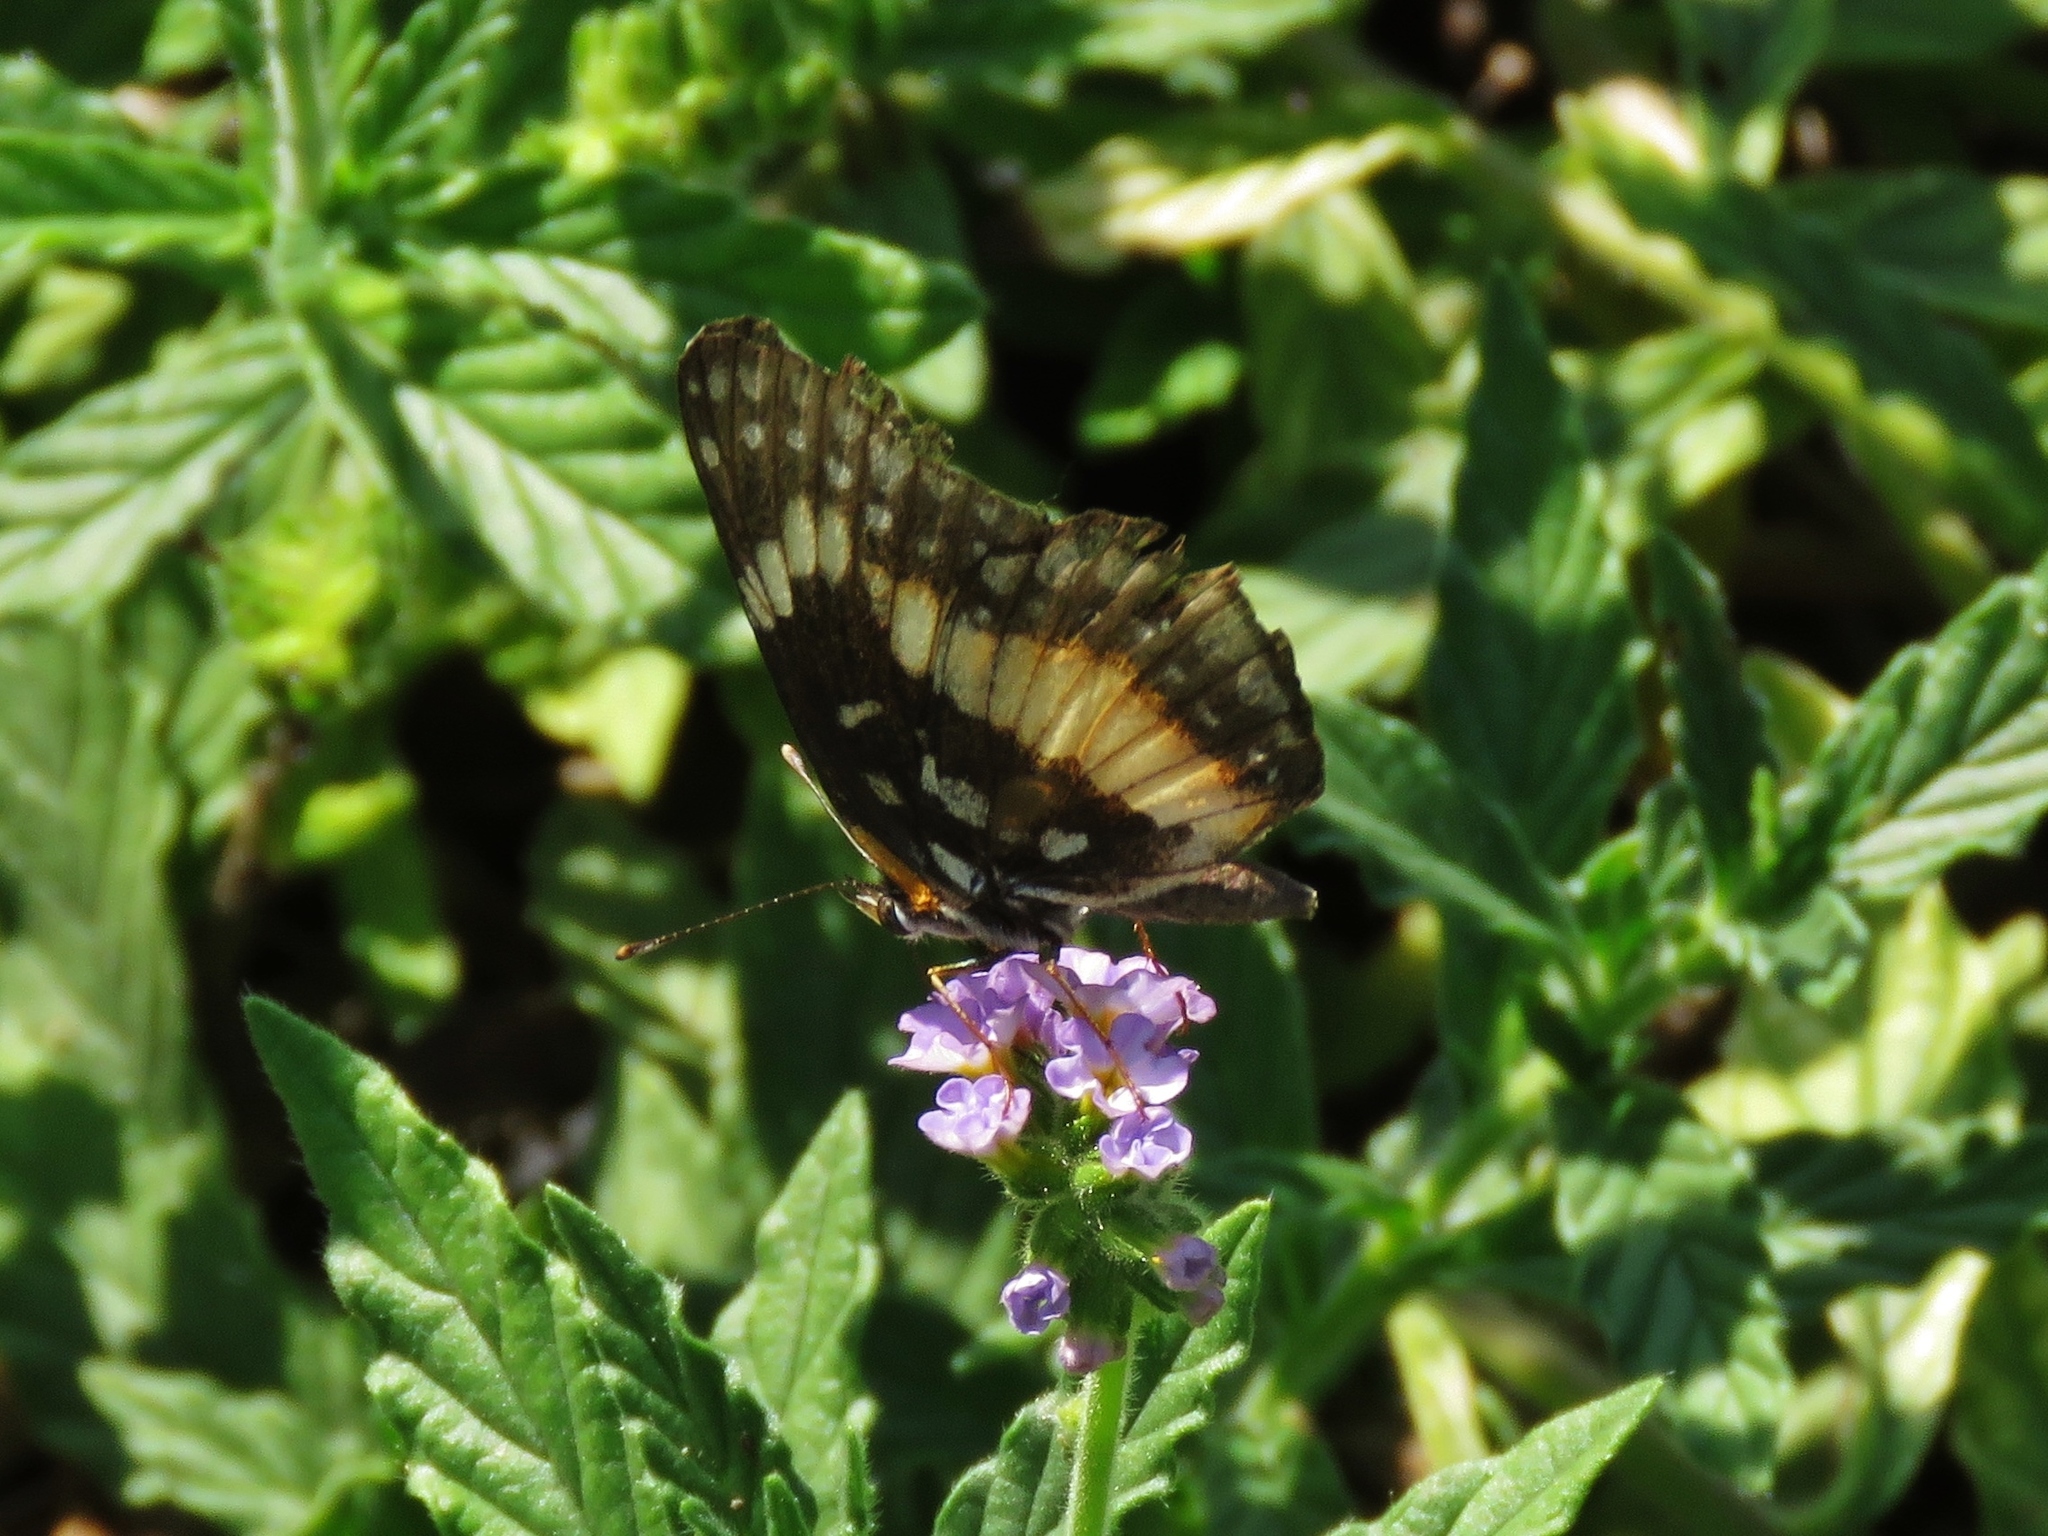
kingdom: Animalia
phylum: Arthropoda
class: Insecta
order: Lepidoptera
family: Nymphalidae
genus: Chlosyne
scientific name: Chlosyne lacinia
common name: Bordered patch
